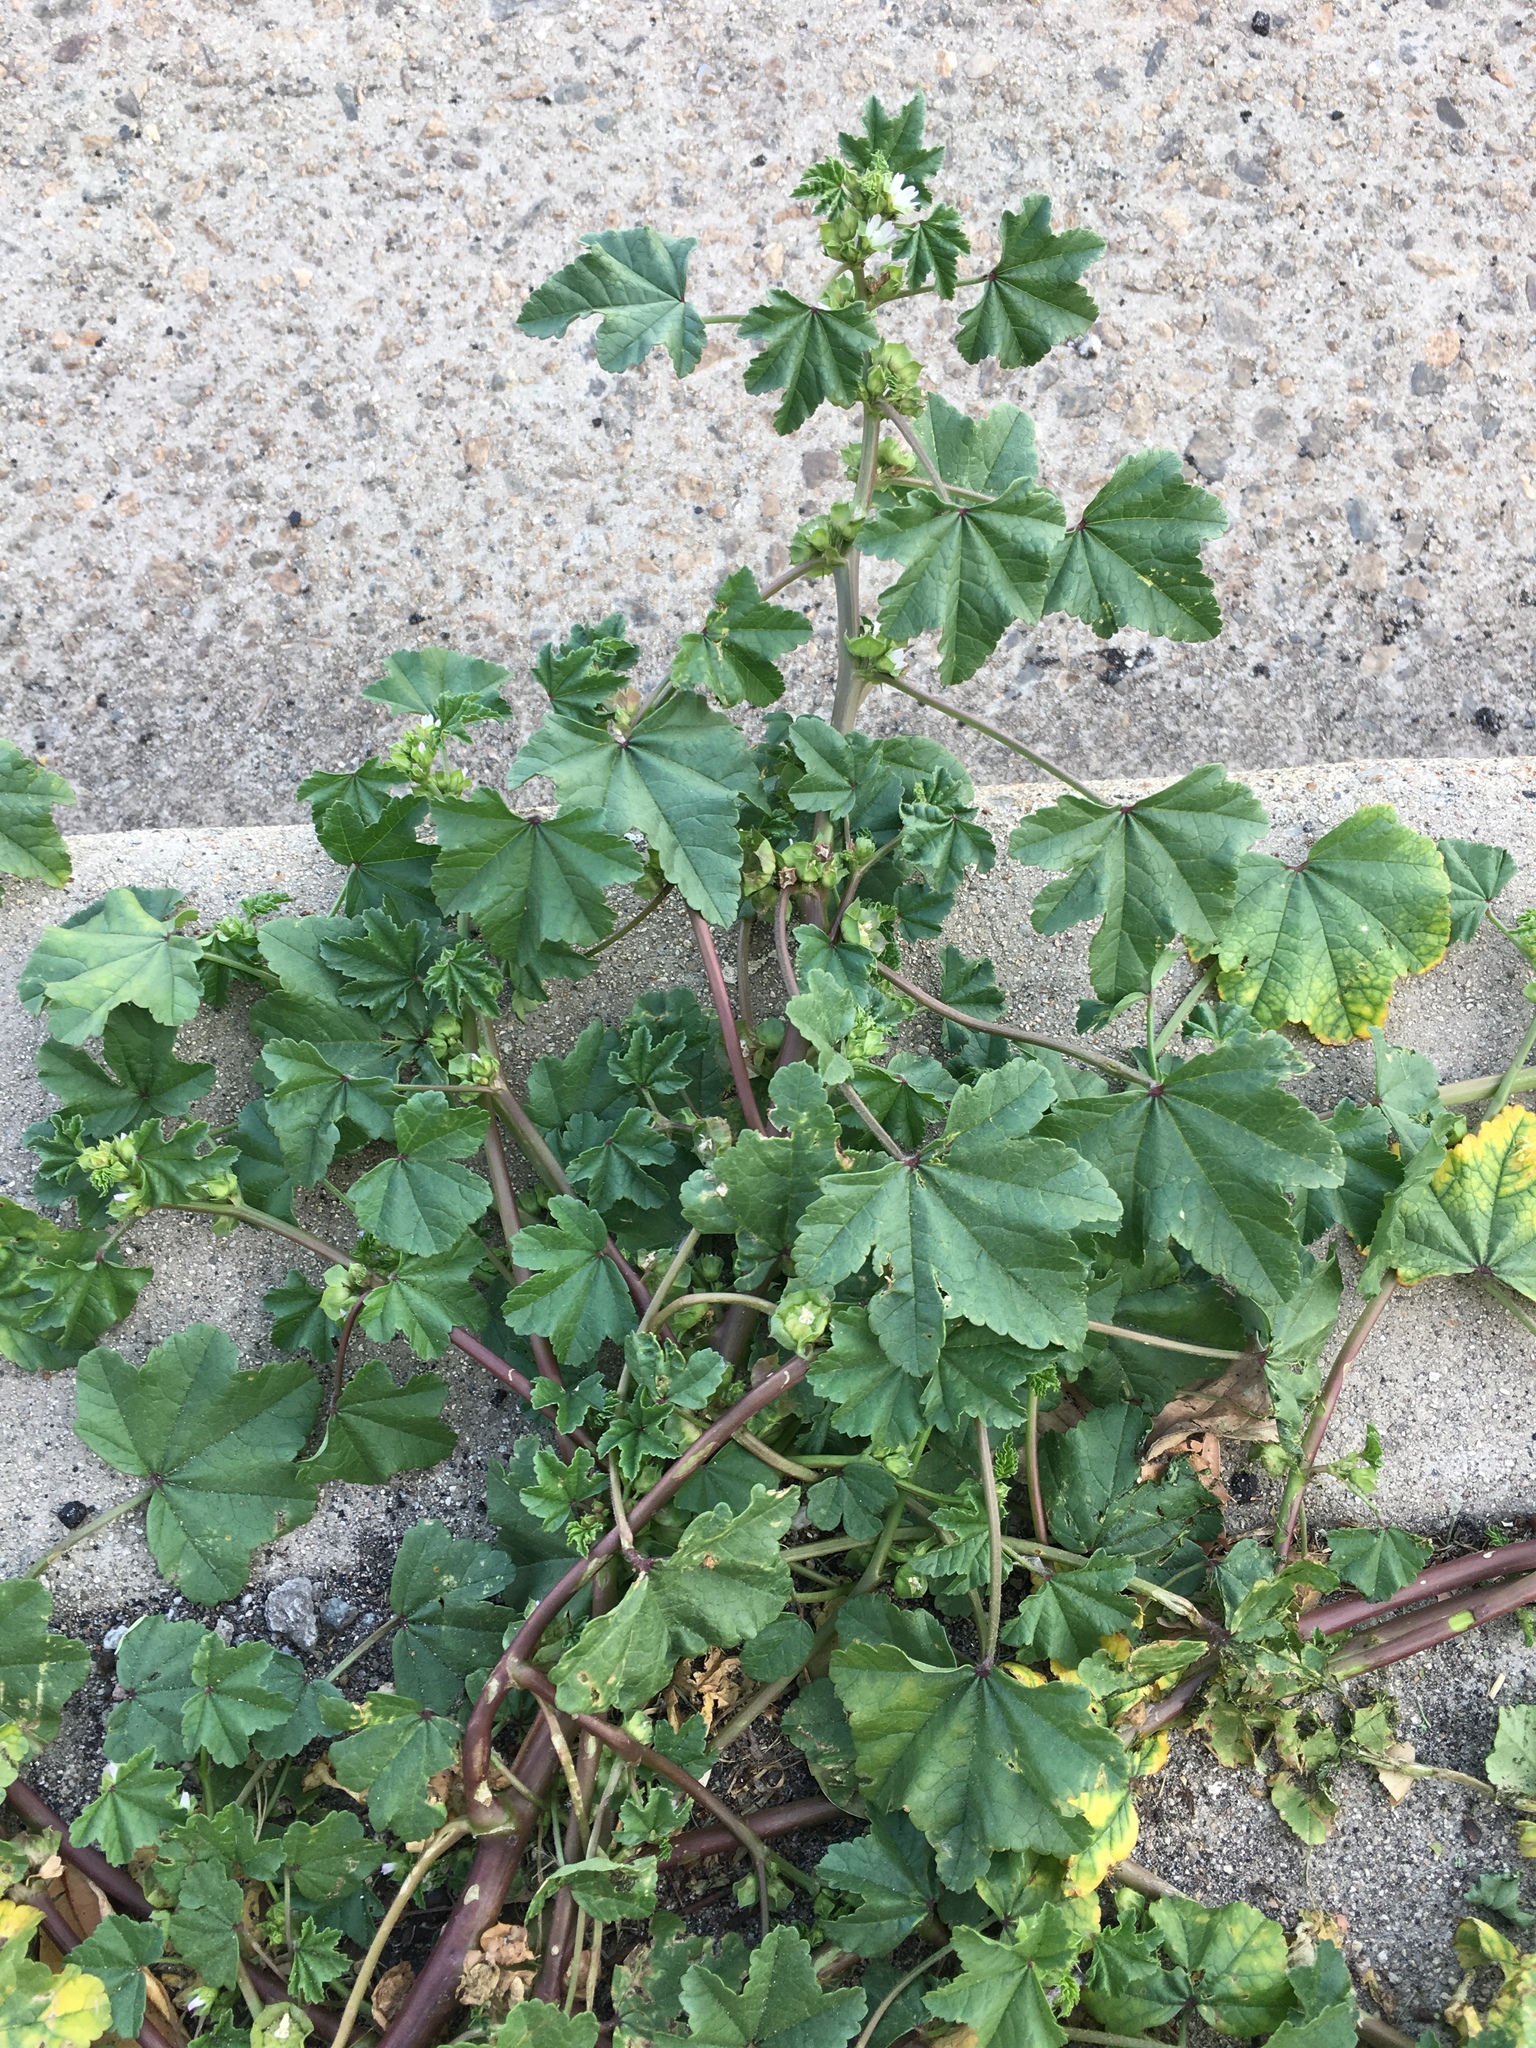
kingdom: Plantae
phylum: Tracheophyta
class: Magnoliopsida
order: Malvales
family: Malvaceae
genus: Malva
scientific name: Malva parviflora
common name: Least mallow
